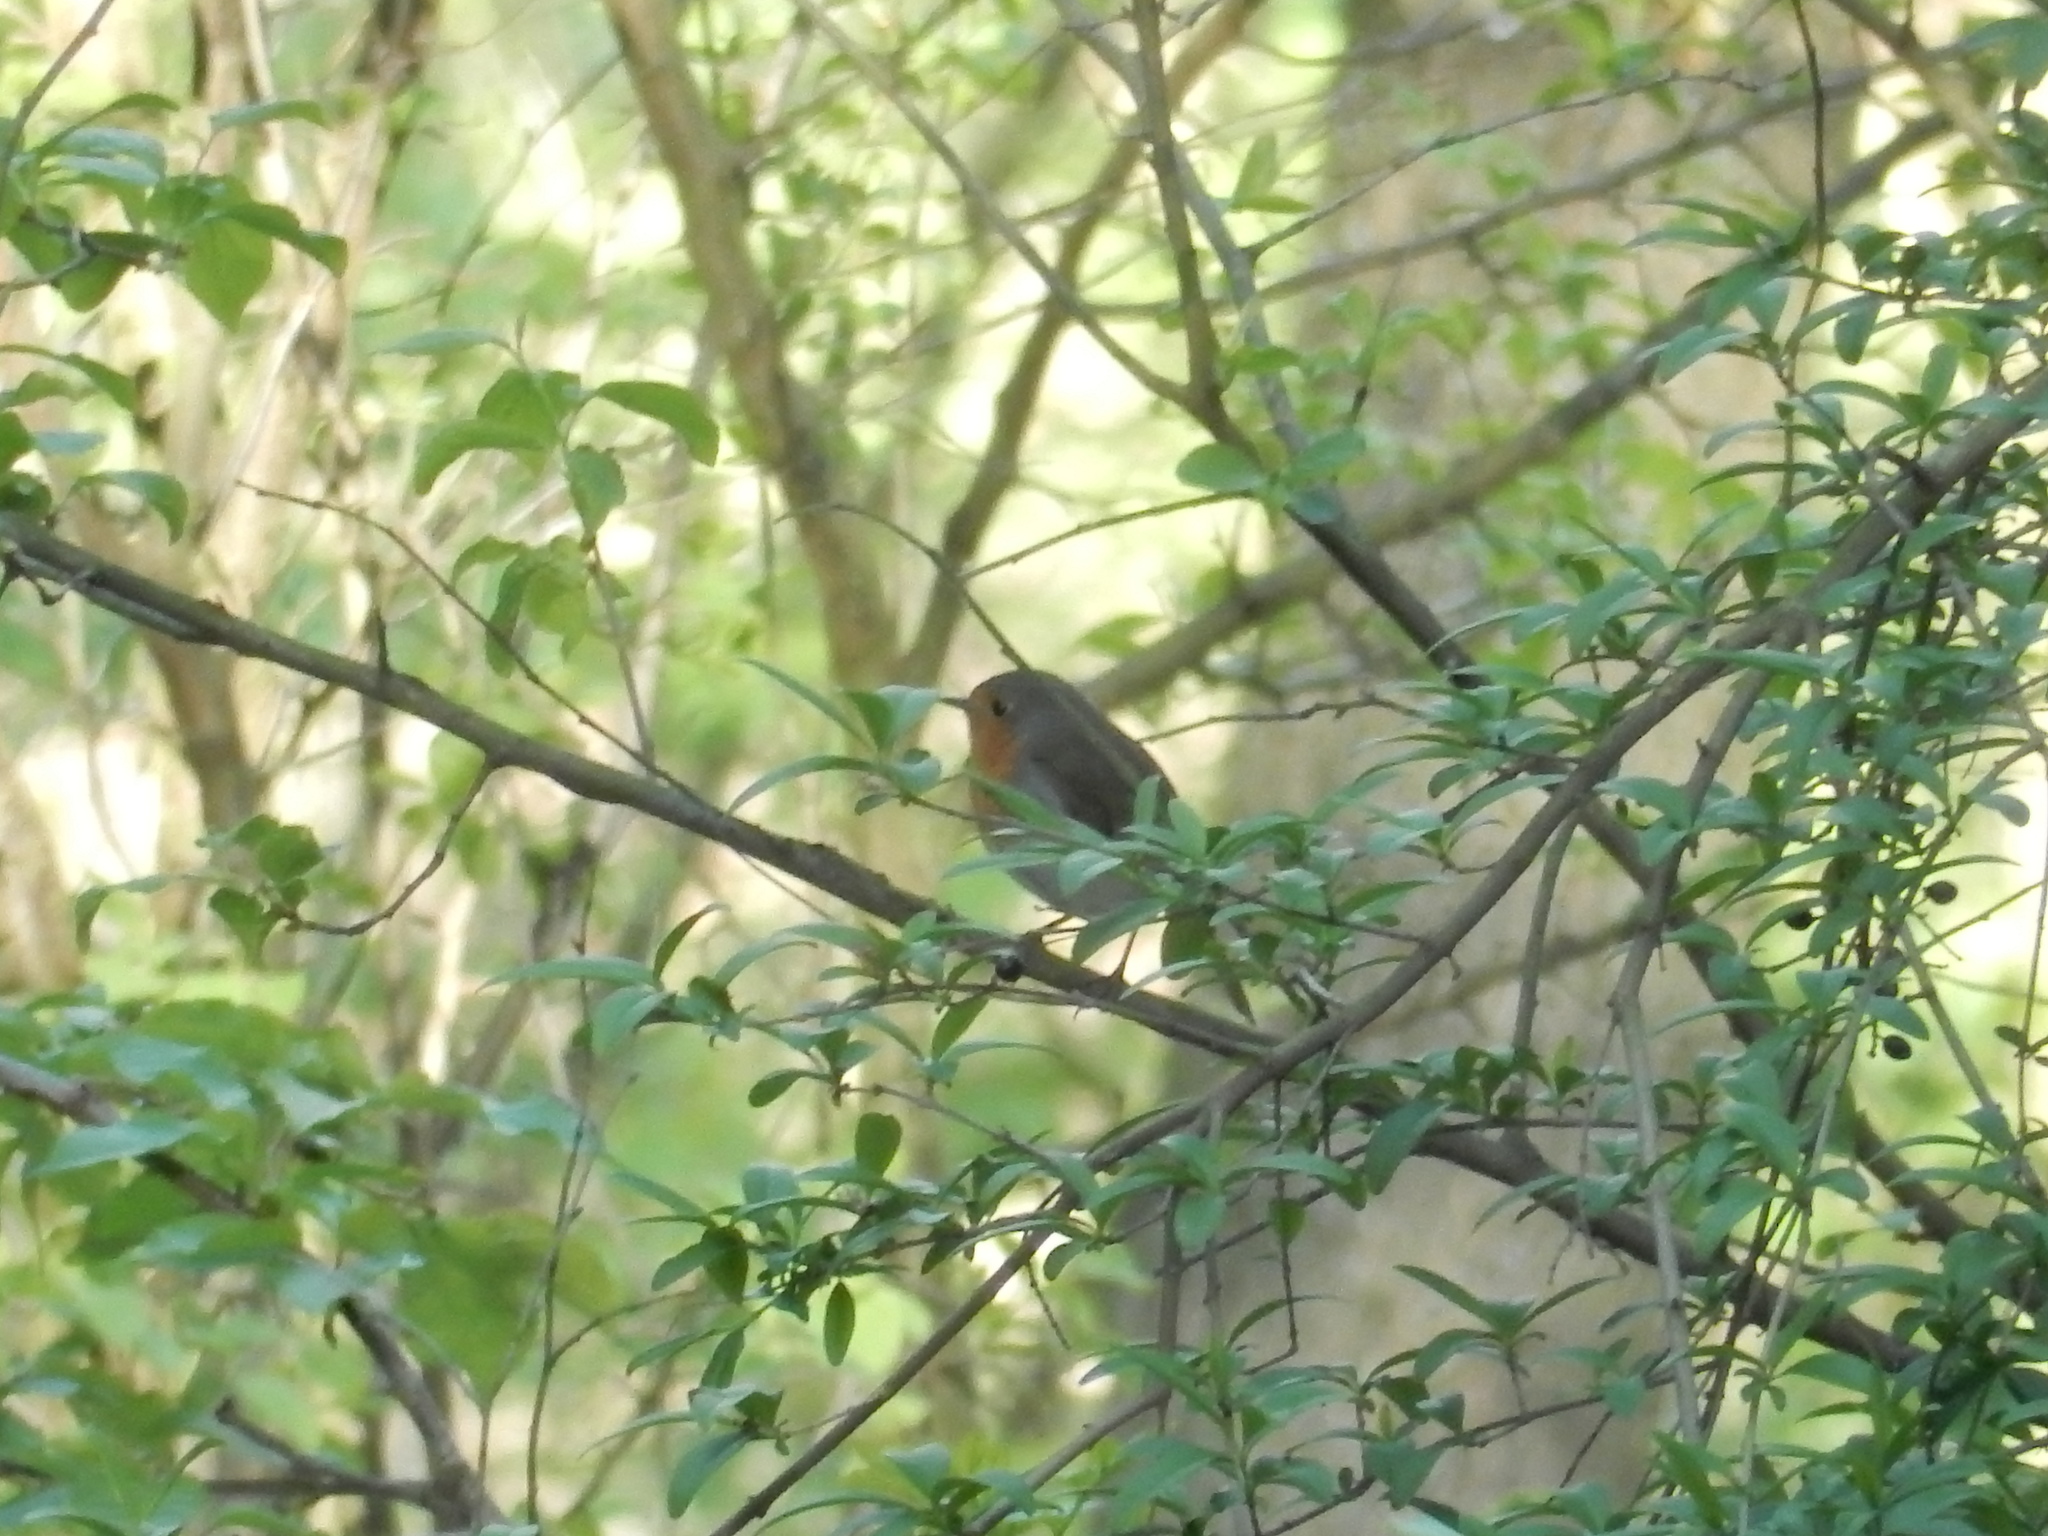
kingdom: Animalia
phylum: Chordata
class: Aves
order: Passeriformes
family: Muscicapidae
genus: Erithacus
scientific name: Erithacus rubecula
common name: European robin
